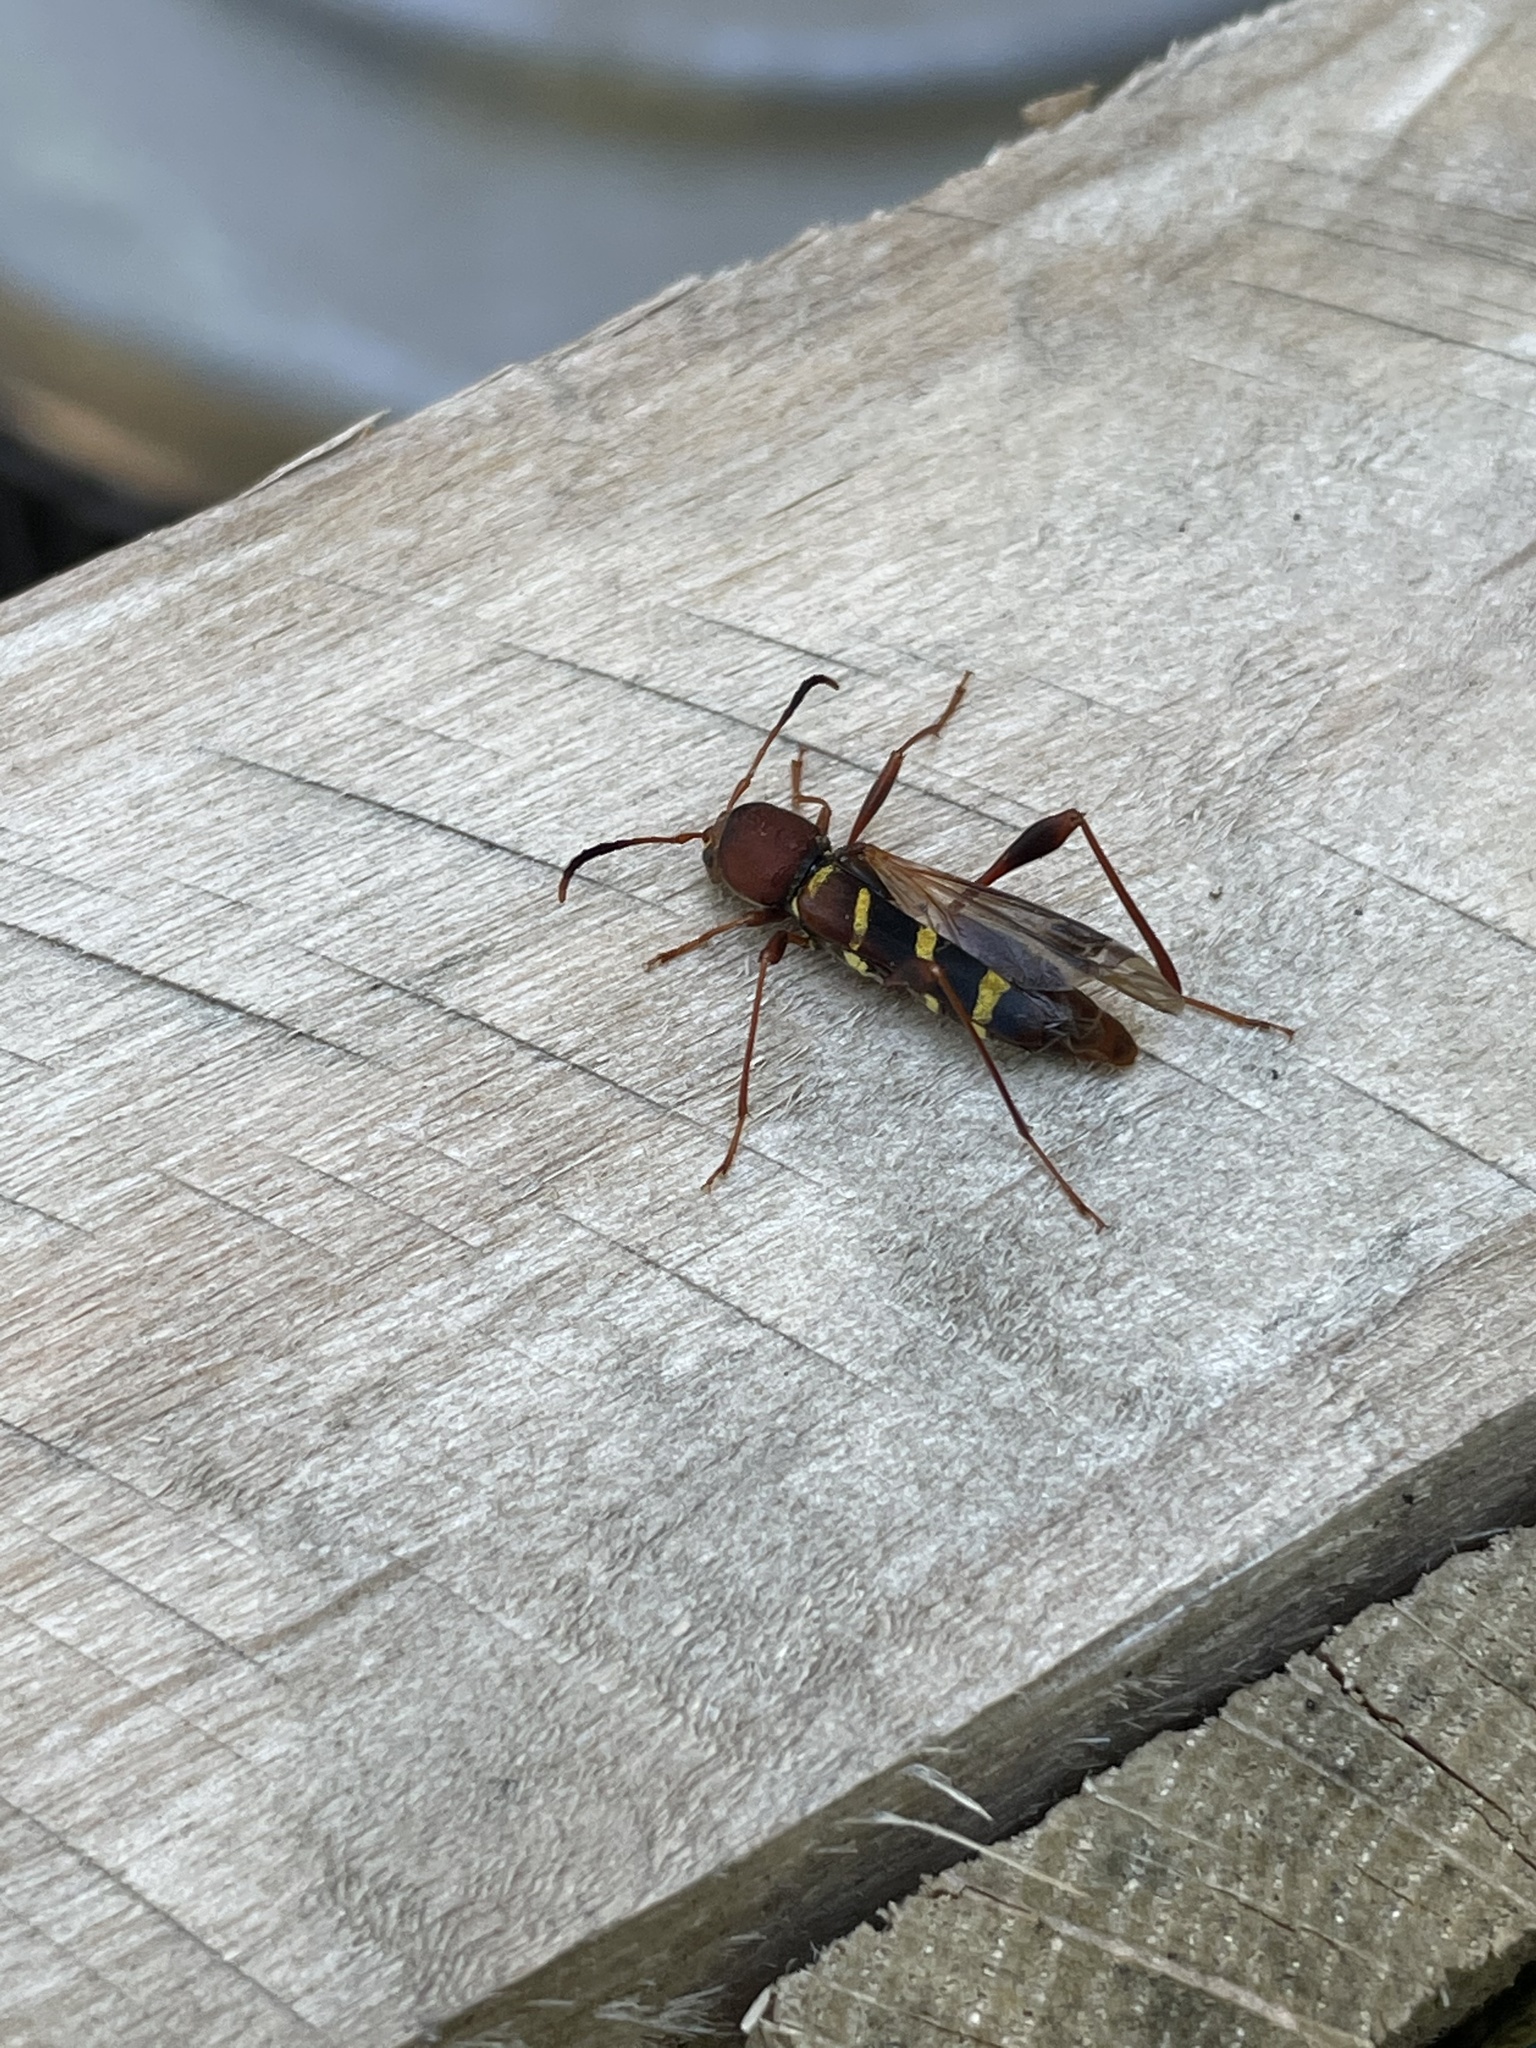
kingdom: Animalia
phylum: Arthropoda
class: Insecta
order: Coleoptera
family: Cerambycidae
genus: Neoclytus
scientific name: Neoclytus acuminatus
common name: Read-headed ash borer
